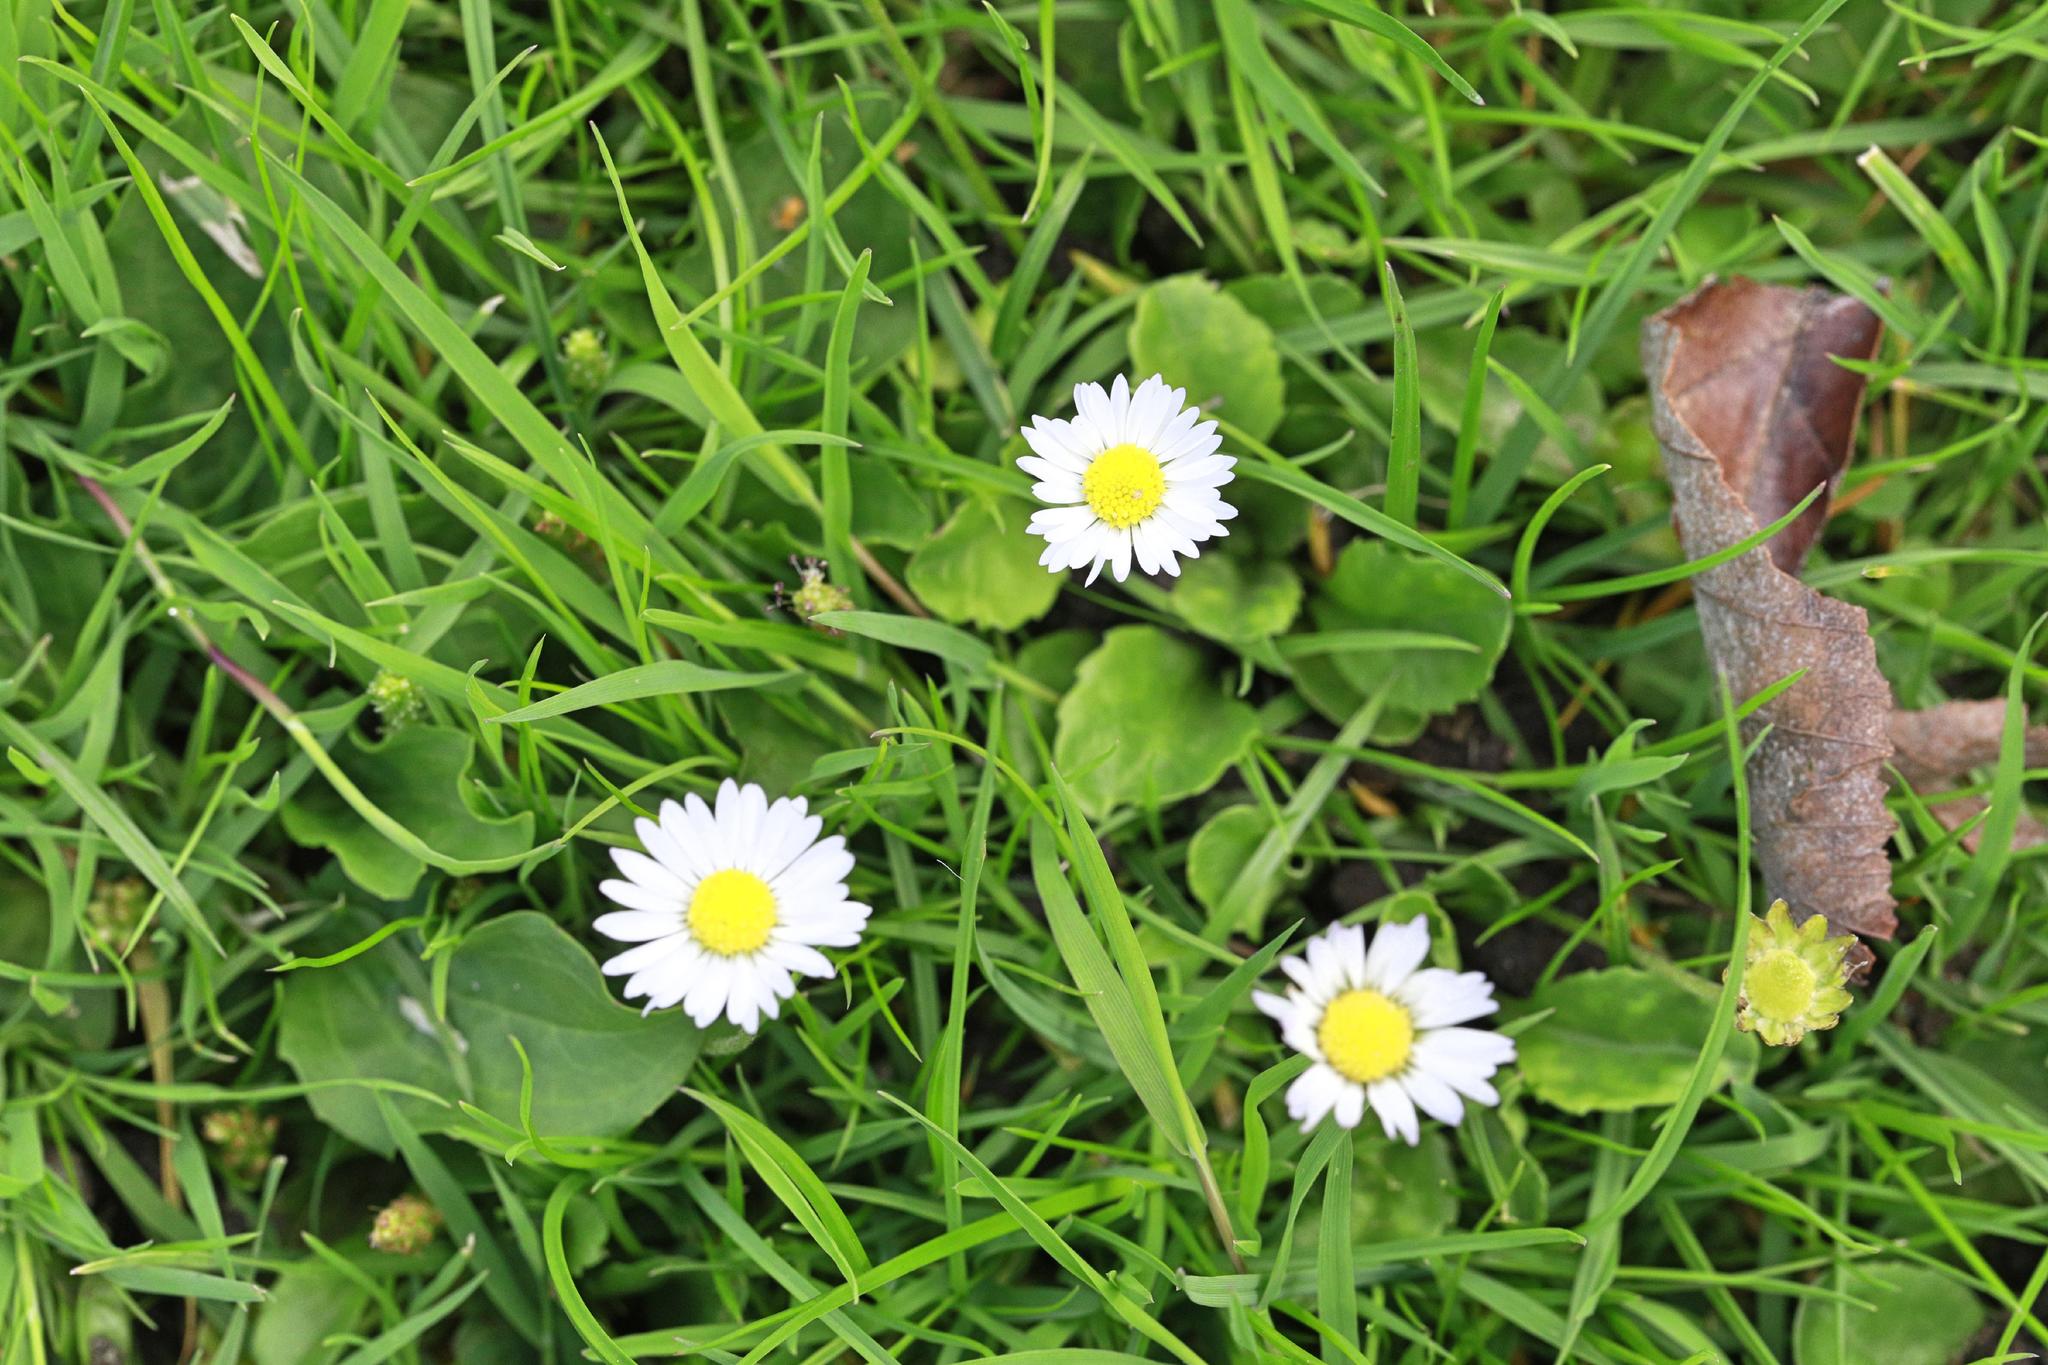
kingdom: Plantae
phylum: Tracheophyta
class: Magnoliopsida
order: Asterales
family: Asteraceae
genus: Bellis
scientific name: Bellis perennis
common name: Lawndaisy
